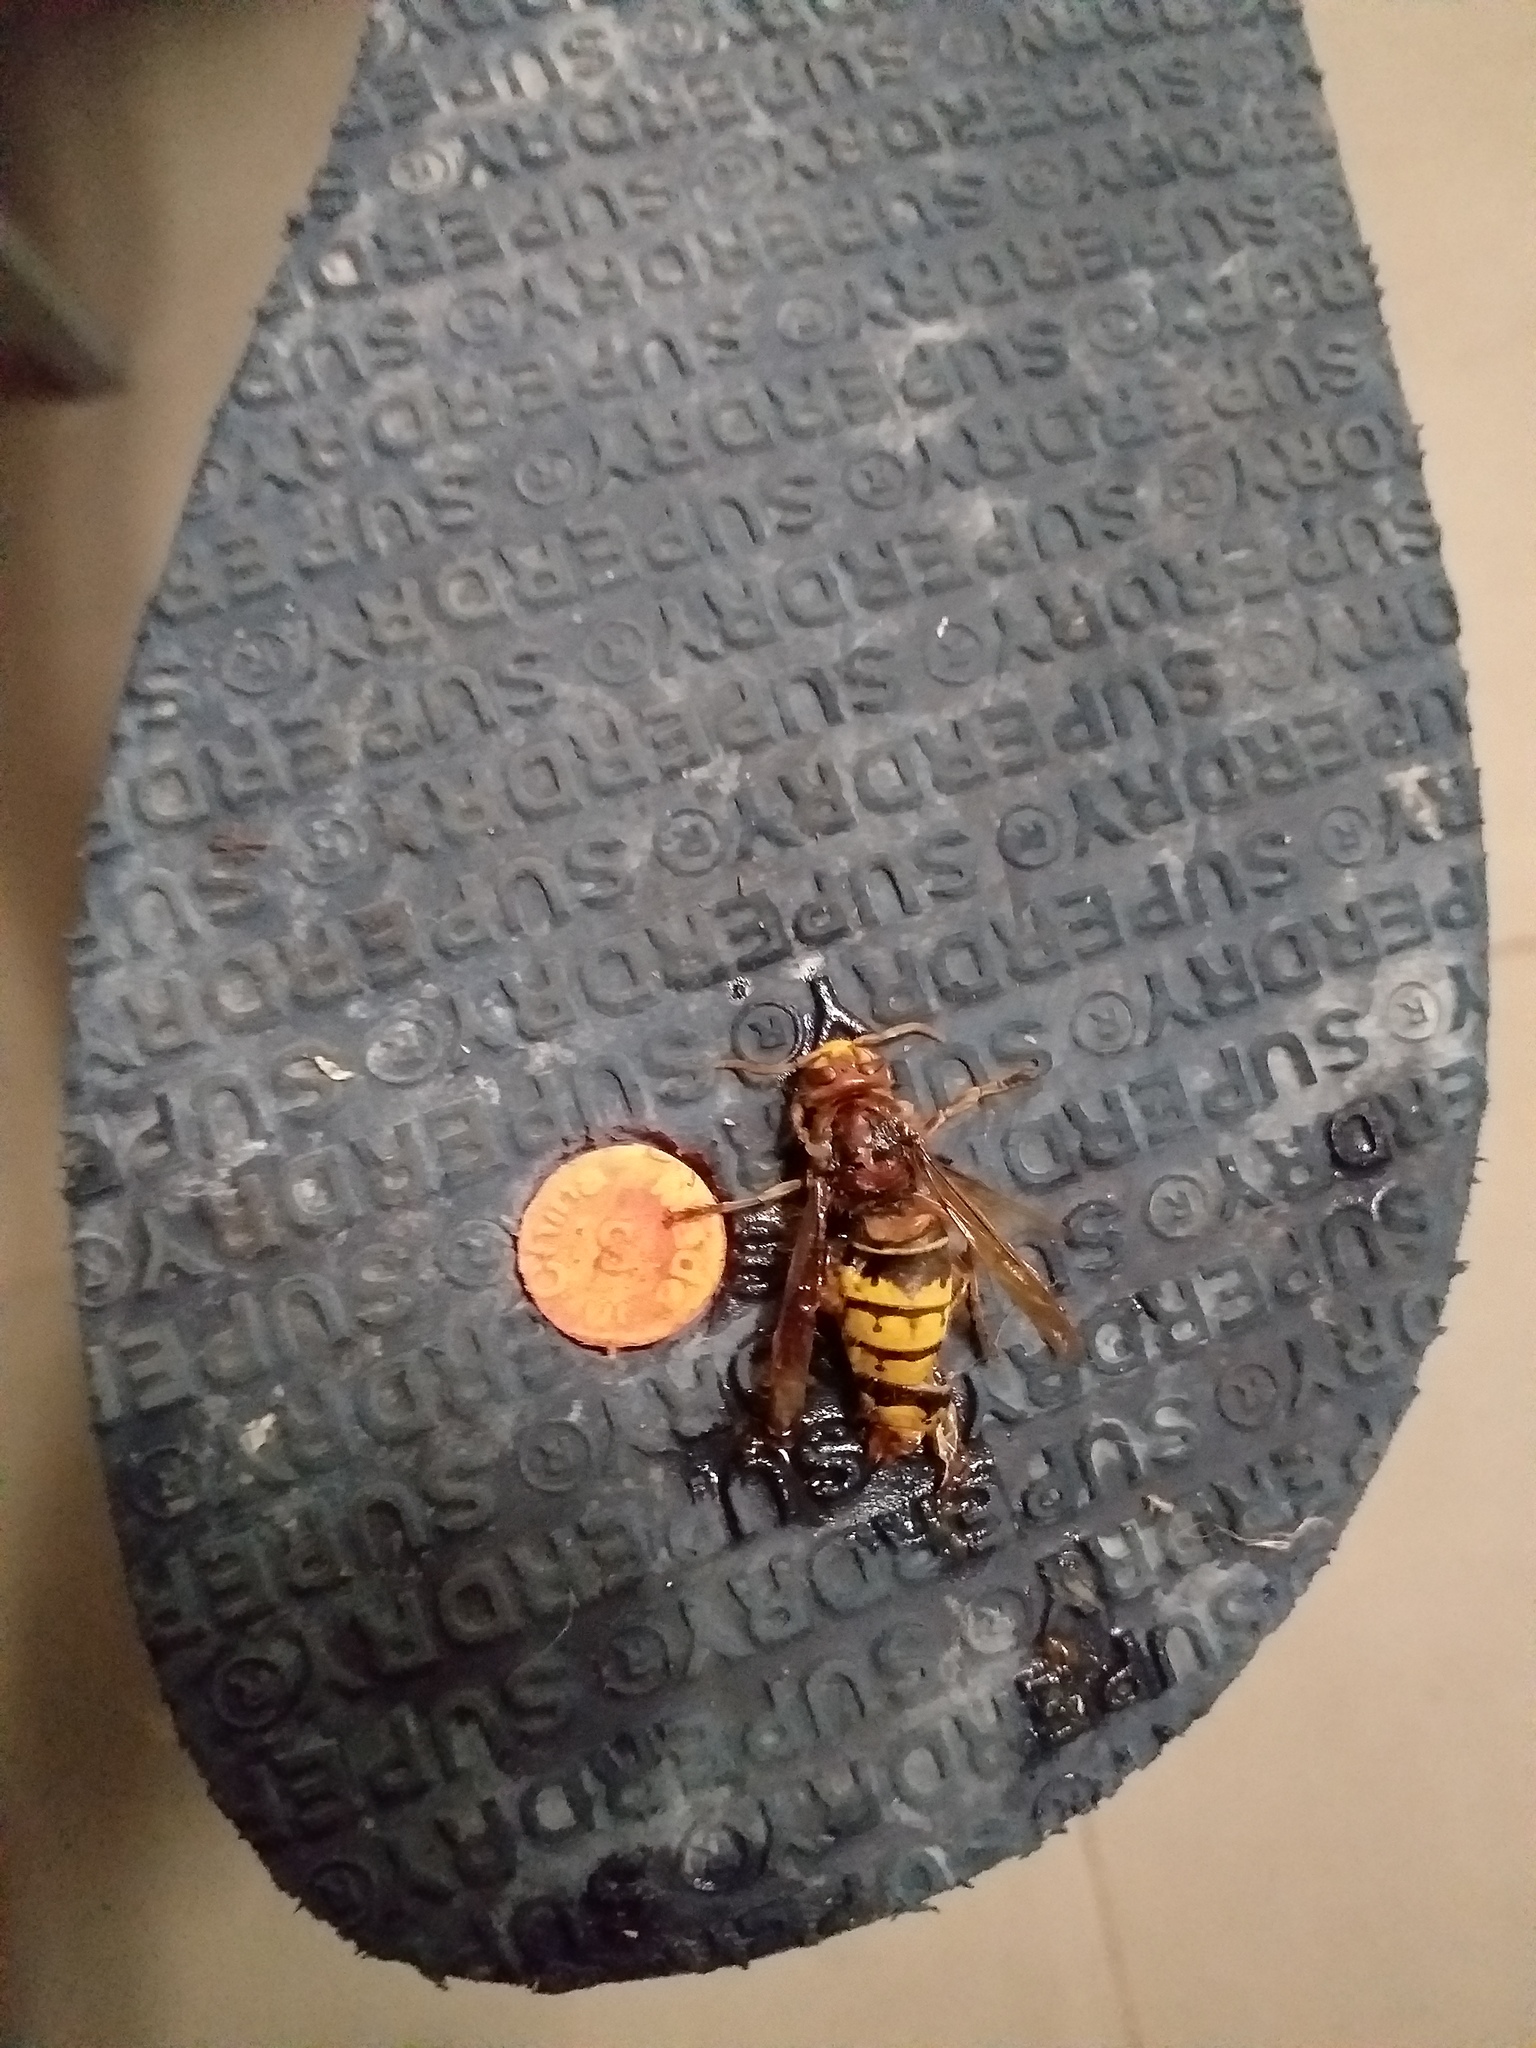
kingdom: Animalia
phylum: Arthropoda
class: Insecta
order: Hymenoptera
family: Vespidae
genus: Vespa
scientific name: Vespa crabro
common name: Hornet
